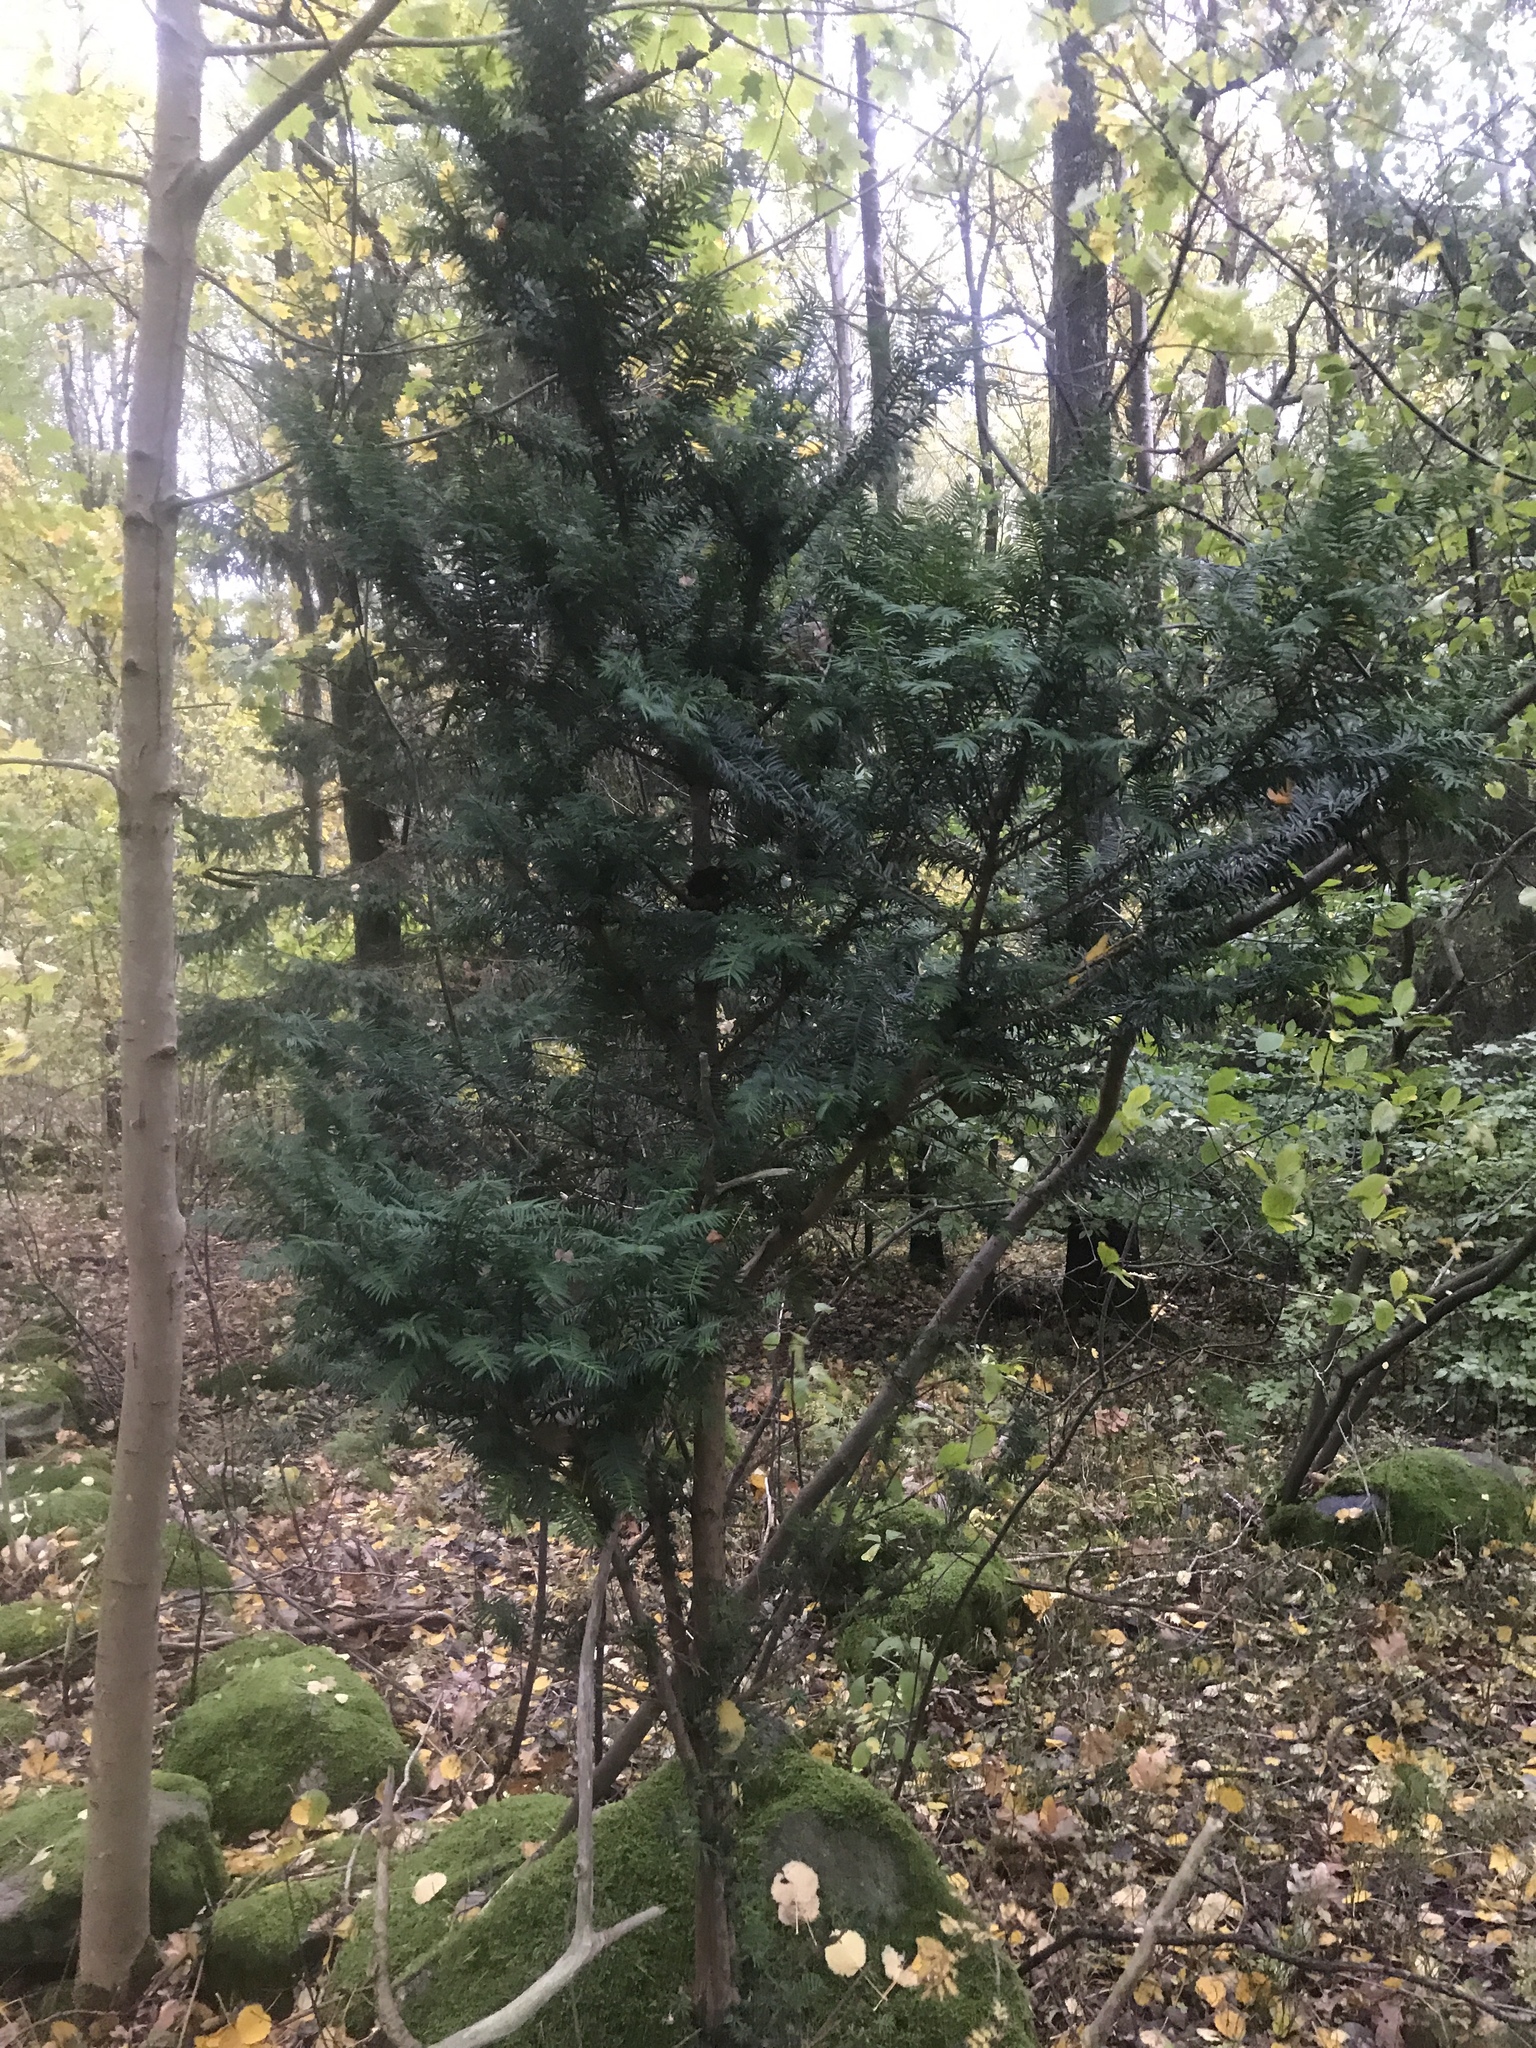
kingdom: Plantae
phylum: Tracheophyta
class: Pinopsida
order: Pinales
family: Taxaceae
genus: Taxus
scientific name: Taxus baccata
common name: Yew
